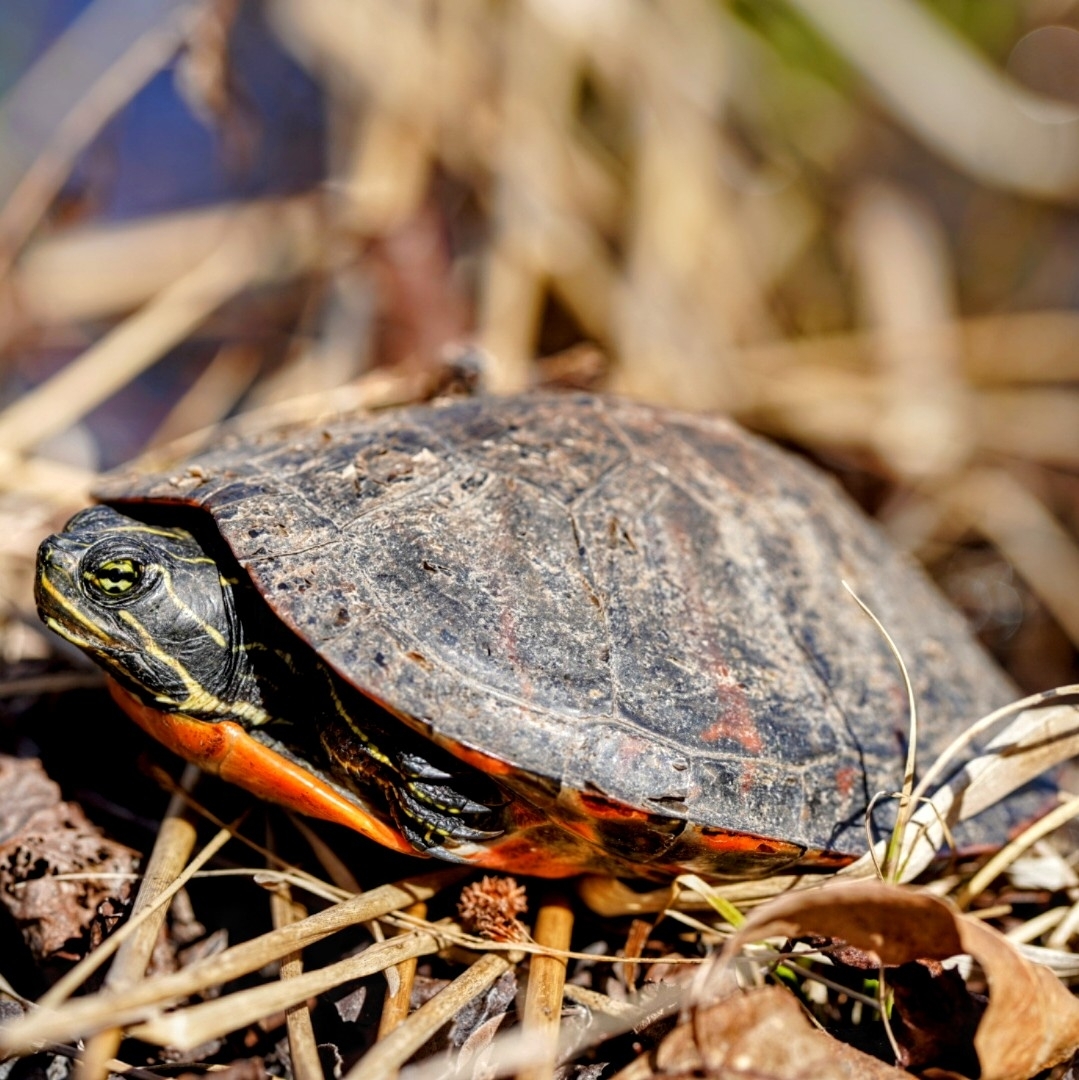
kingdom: Animalia
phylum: Chordata
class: Testudines
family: Emydidae
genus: Pseudemys
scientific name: Pseudemys rubriventris
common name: American red-bellied turtle
